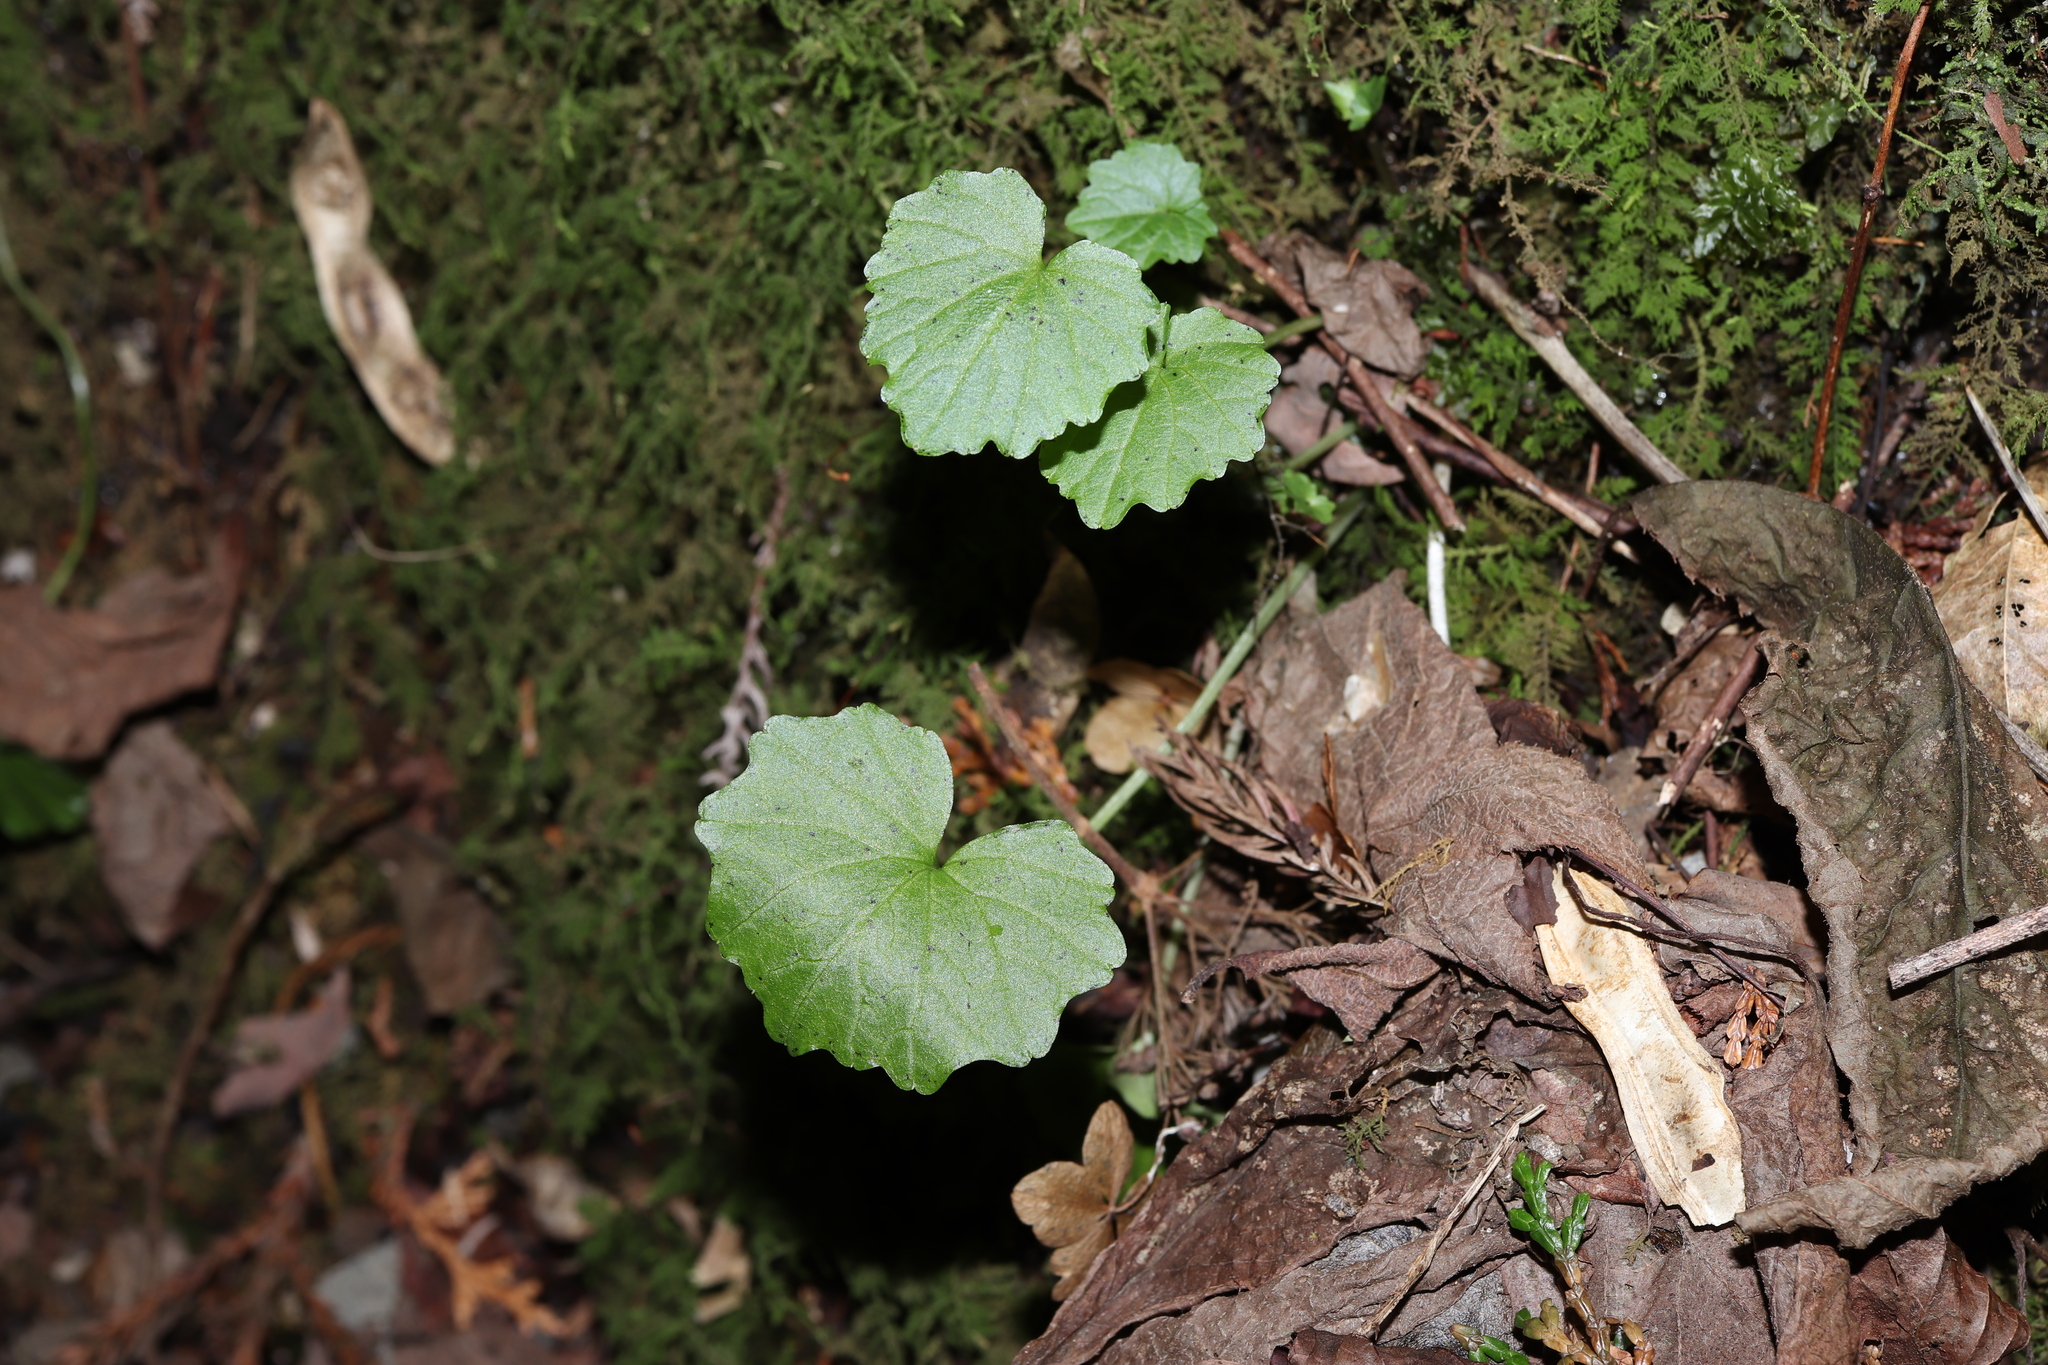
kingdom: Plantae
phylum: Tracheophyta
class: Magnoliopsida
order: Brassicales
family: Brassicaceae
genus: Eutrema
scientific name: Eutrema tenue
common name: Lesser wasabi
